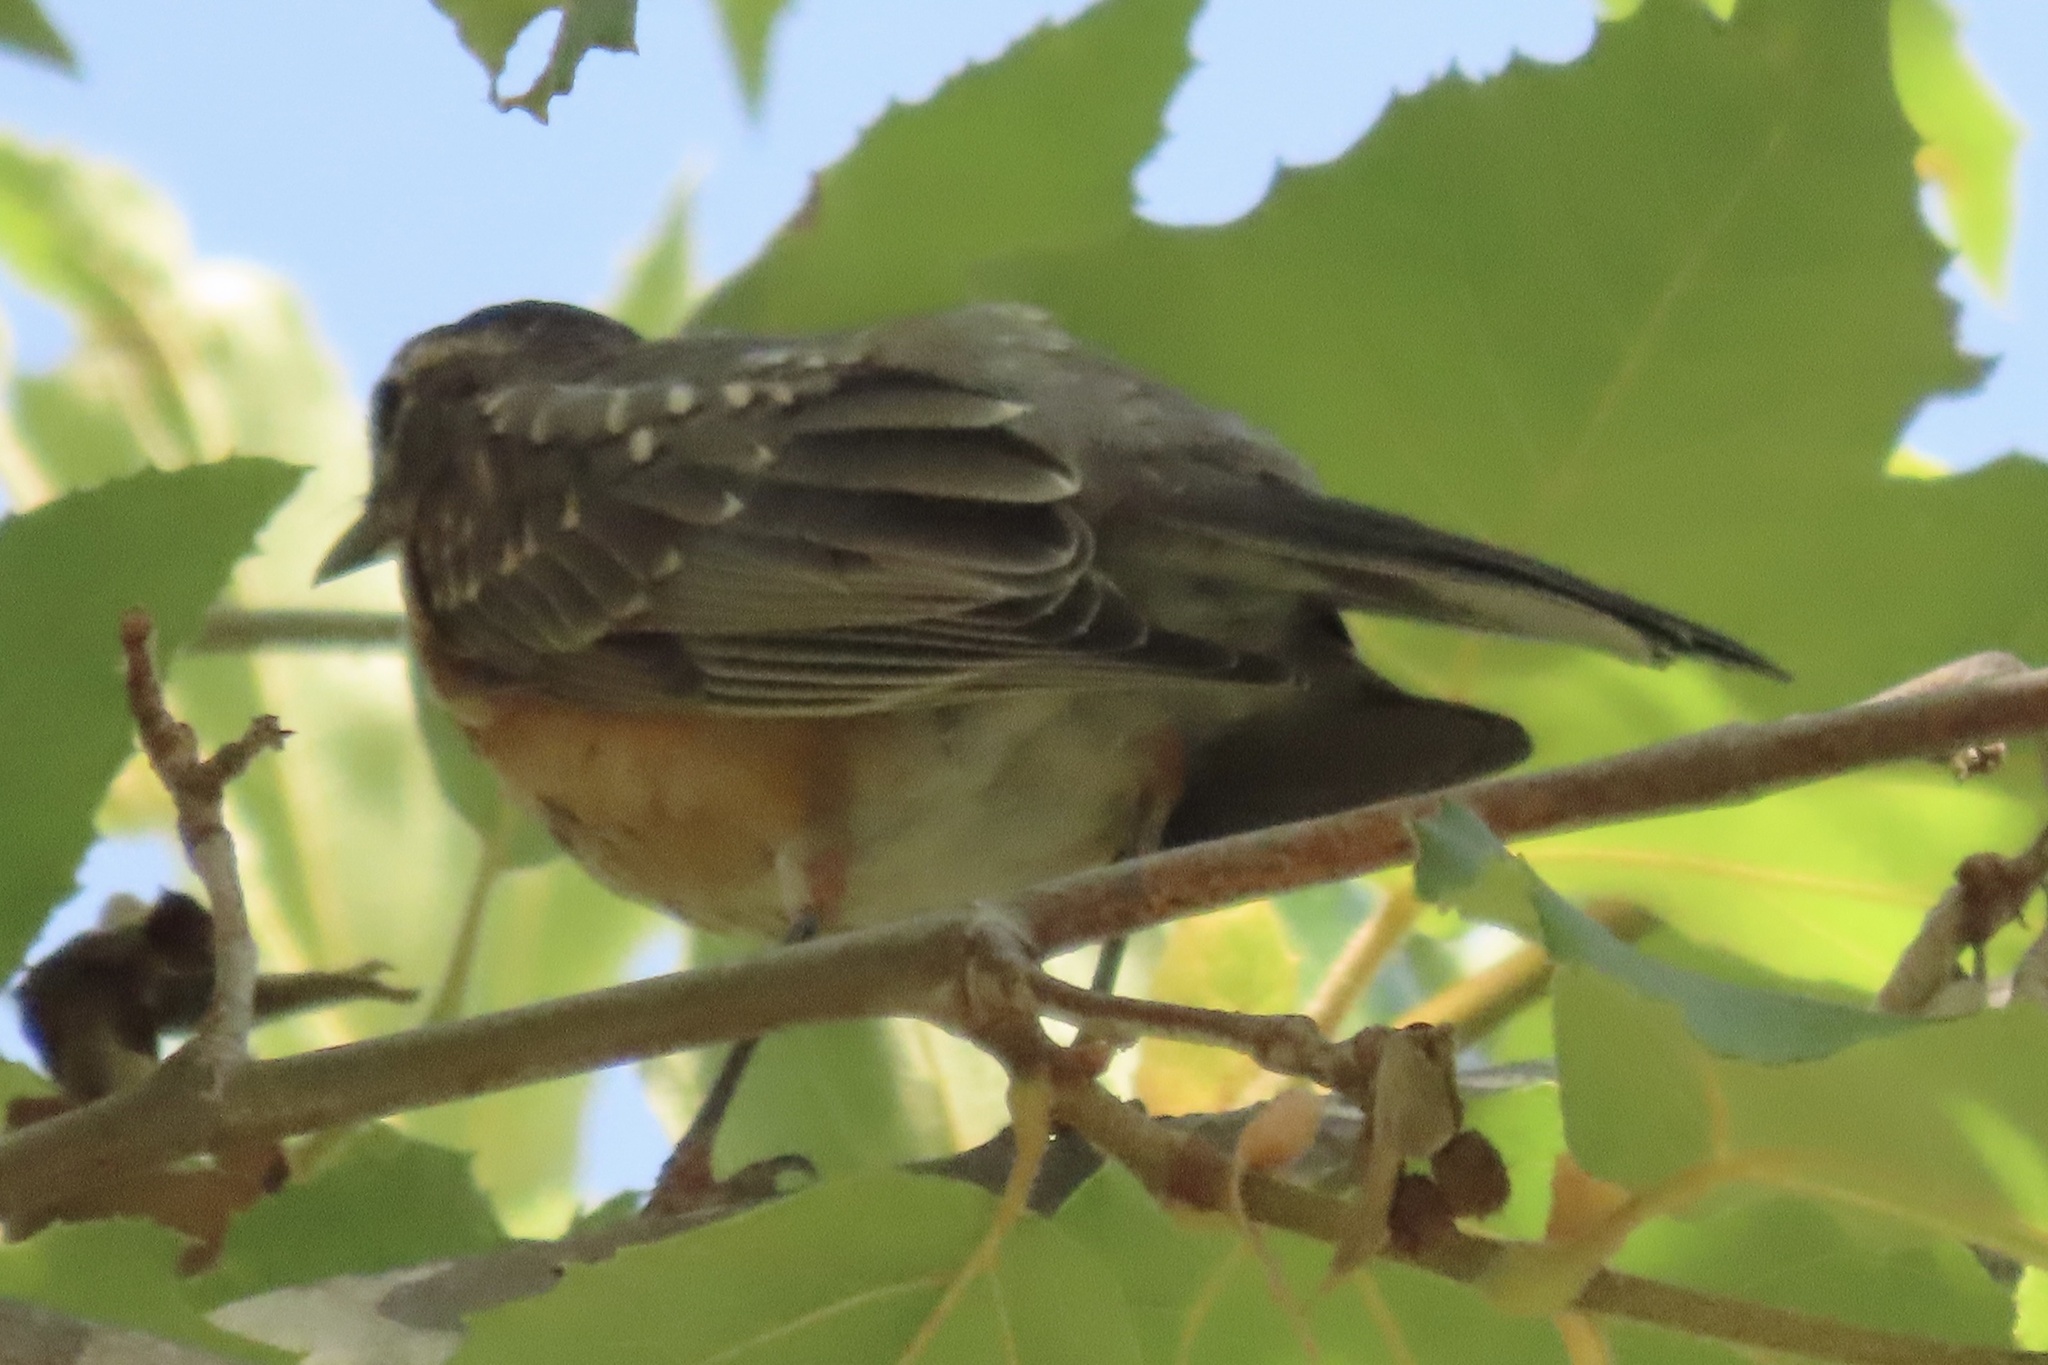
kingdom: Animalia
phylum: Chordata
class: Aves
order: Passeriformes
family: Turdidae
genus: Turdus
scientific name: Turdus migratorius
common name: American robin
